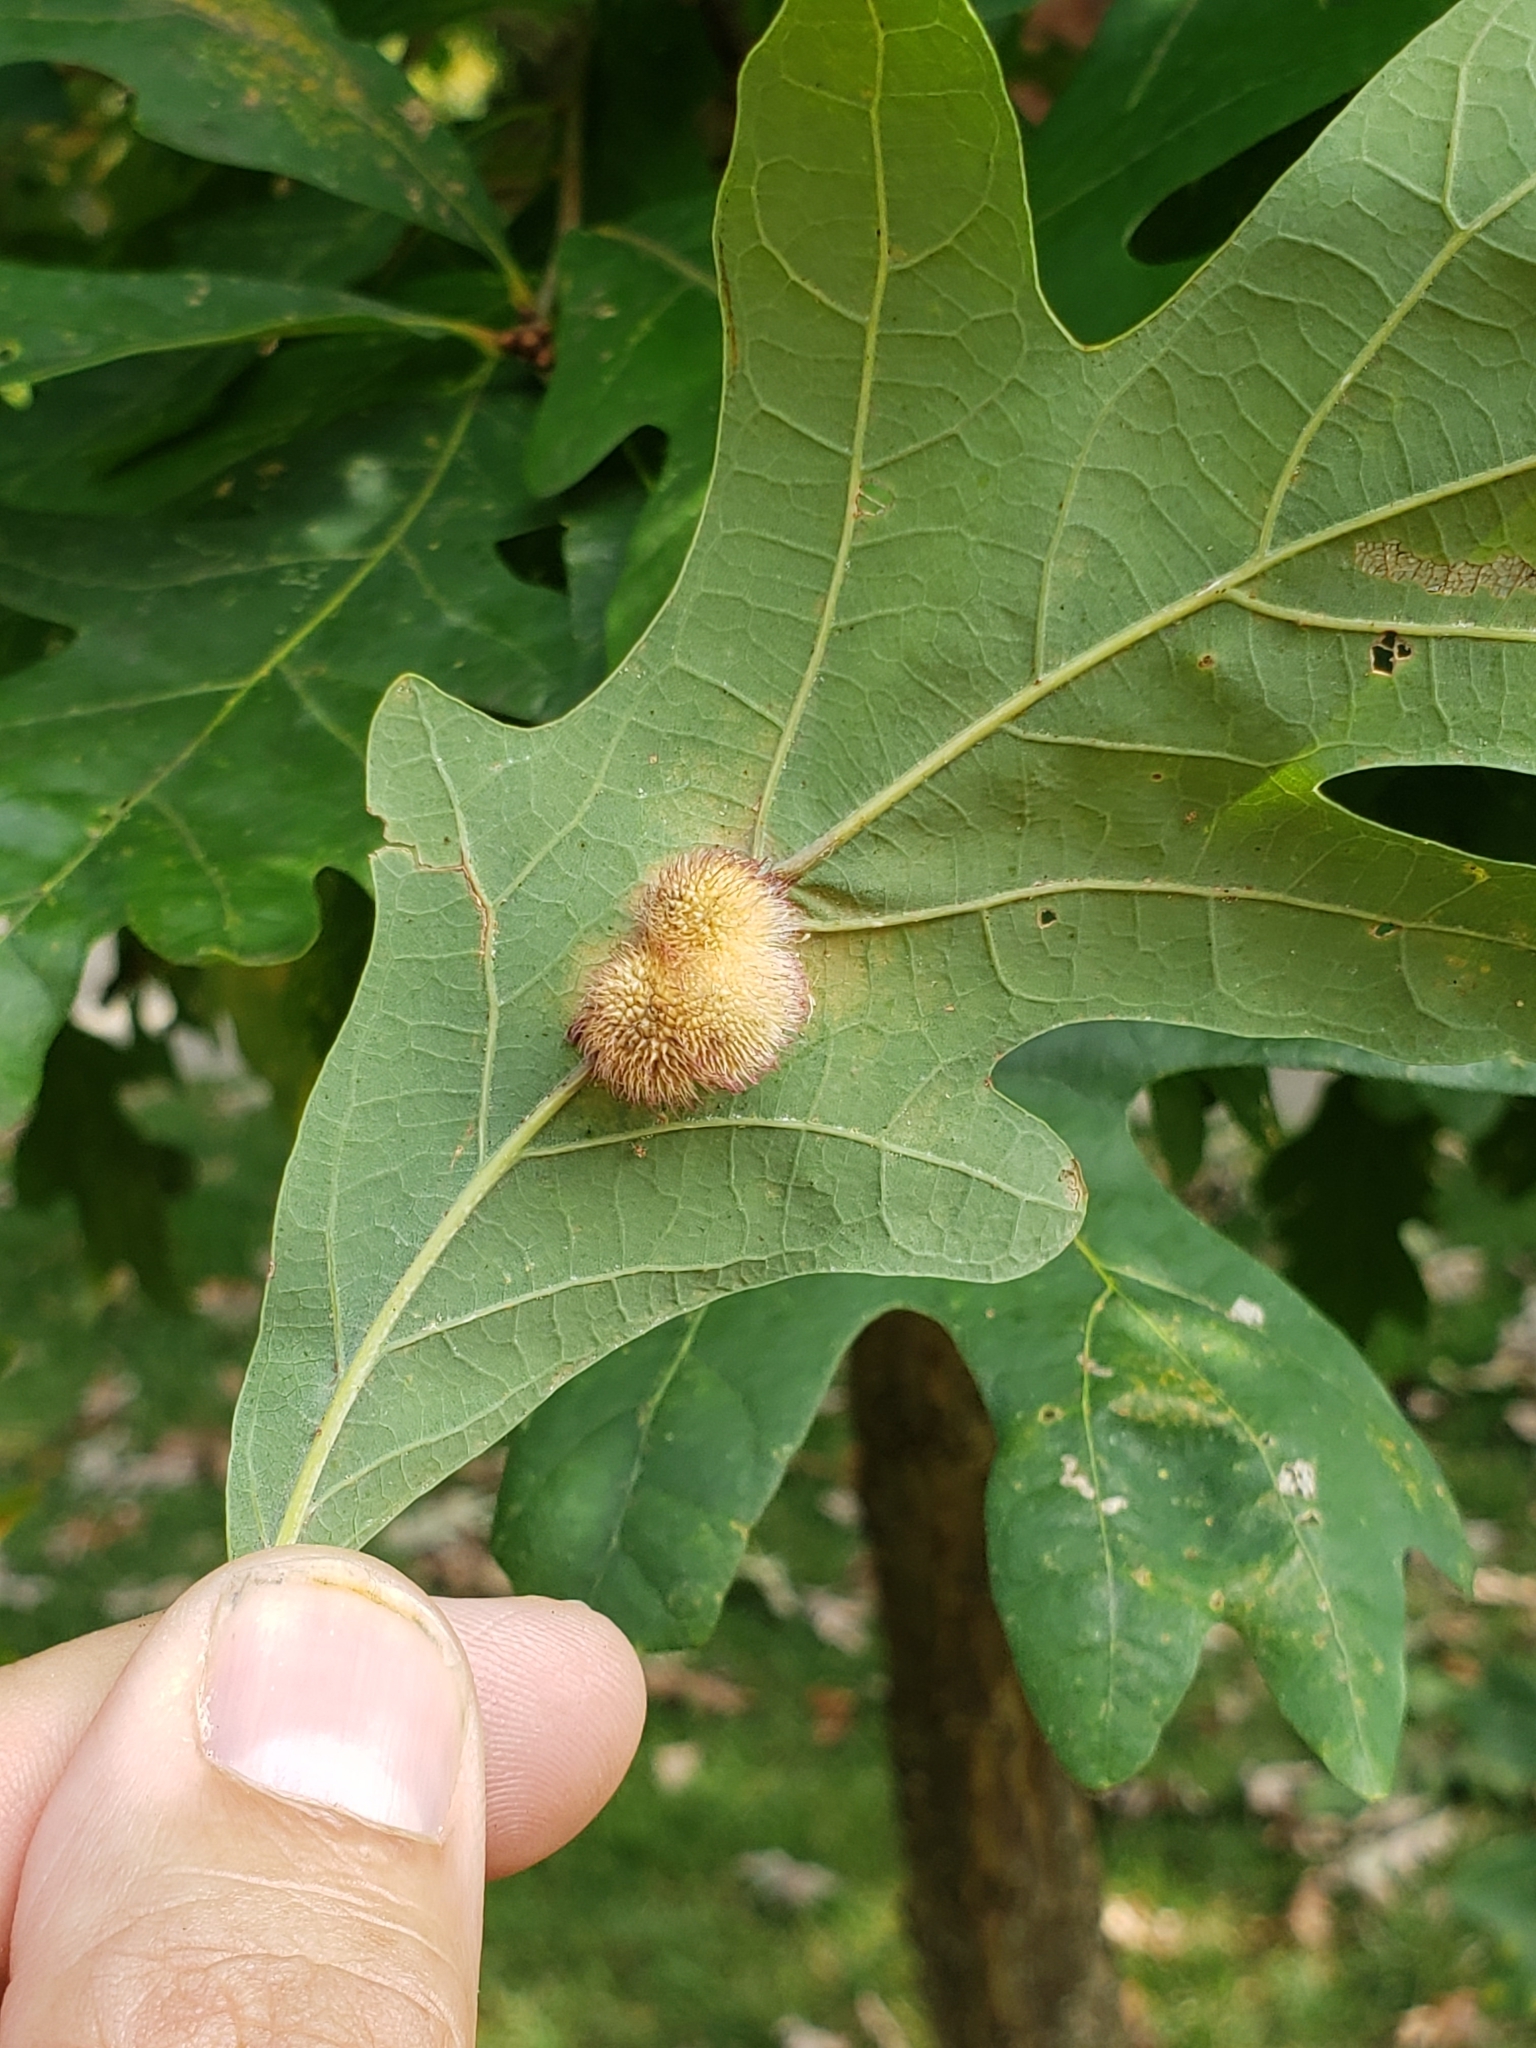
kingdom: Animalia
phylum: Arthropoda
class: Insecta
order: Hymenoptera
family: Cynipidae
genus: Acraspis
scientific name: Acraspis erinacei
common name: Hedgehog gall wasp
